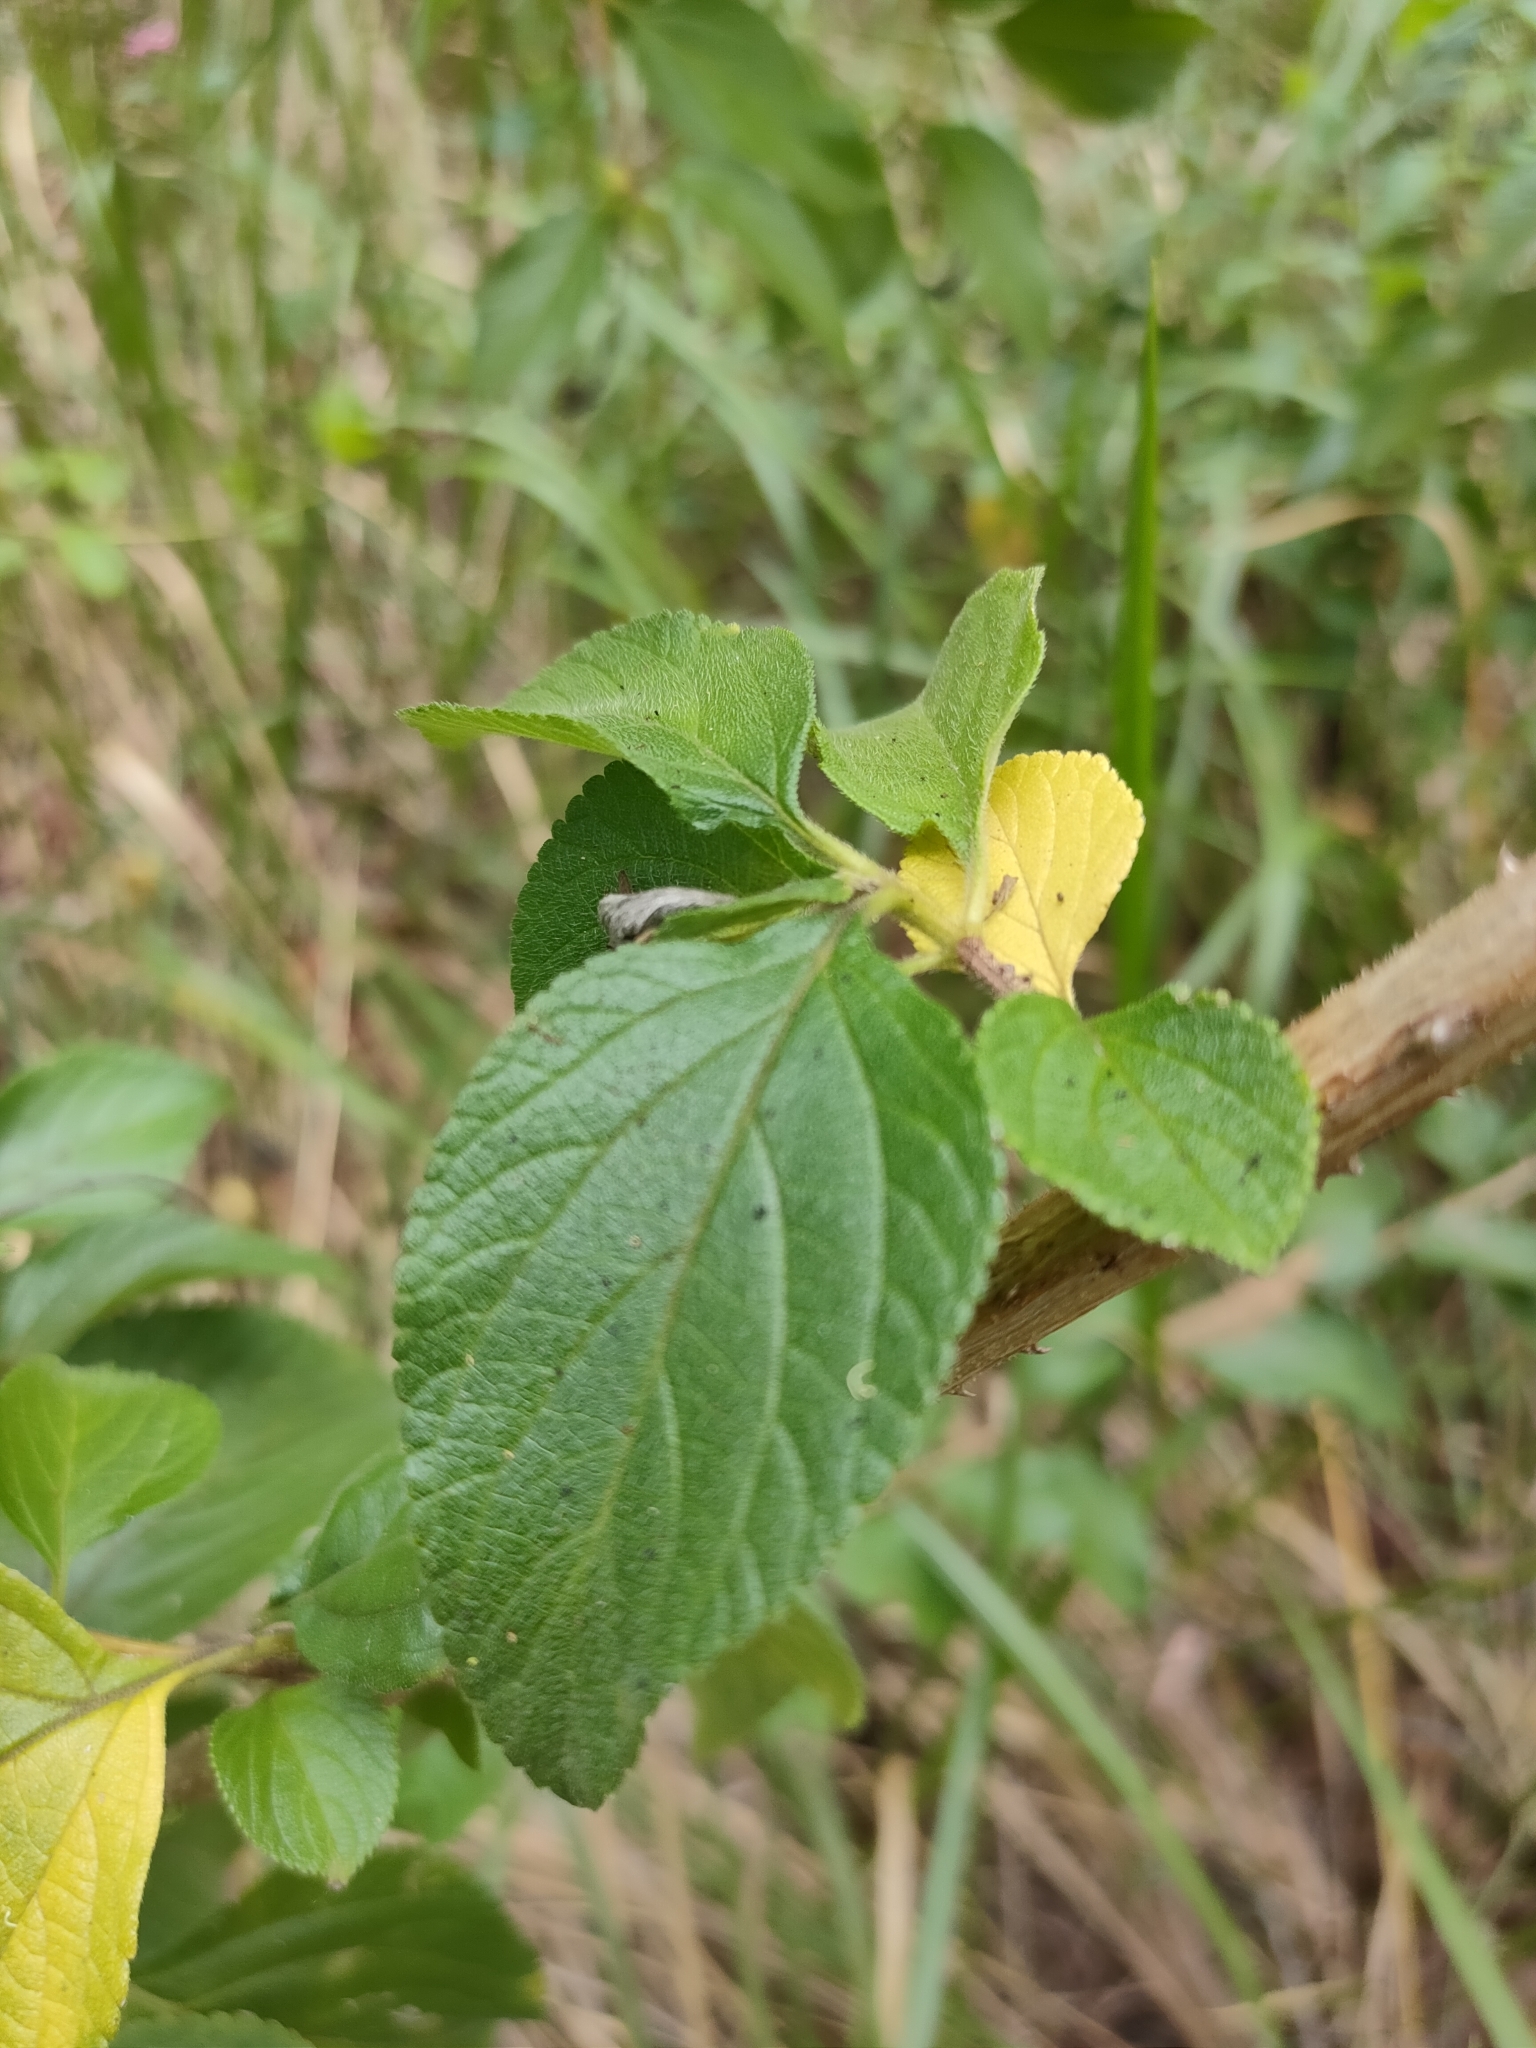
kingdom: Plantae
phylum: Tracheophyta
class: Magnoliopsida
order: Lamiales
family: Verbenaceae
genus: Lantana
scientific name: Lantana camara
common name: Lantana
